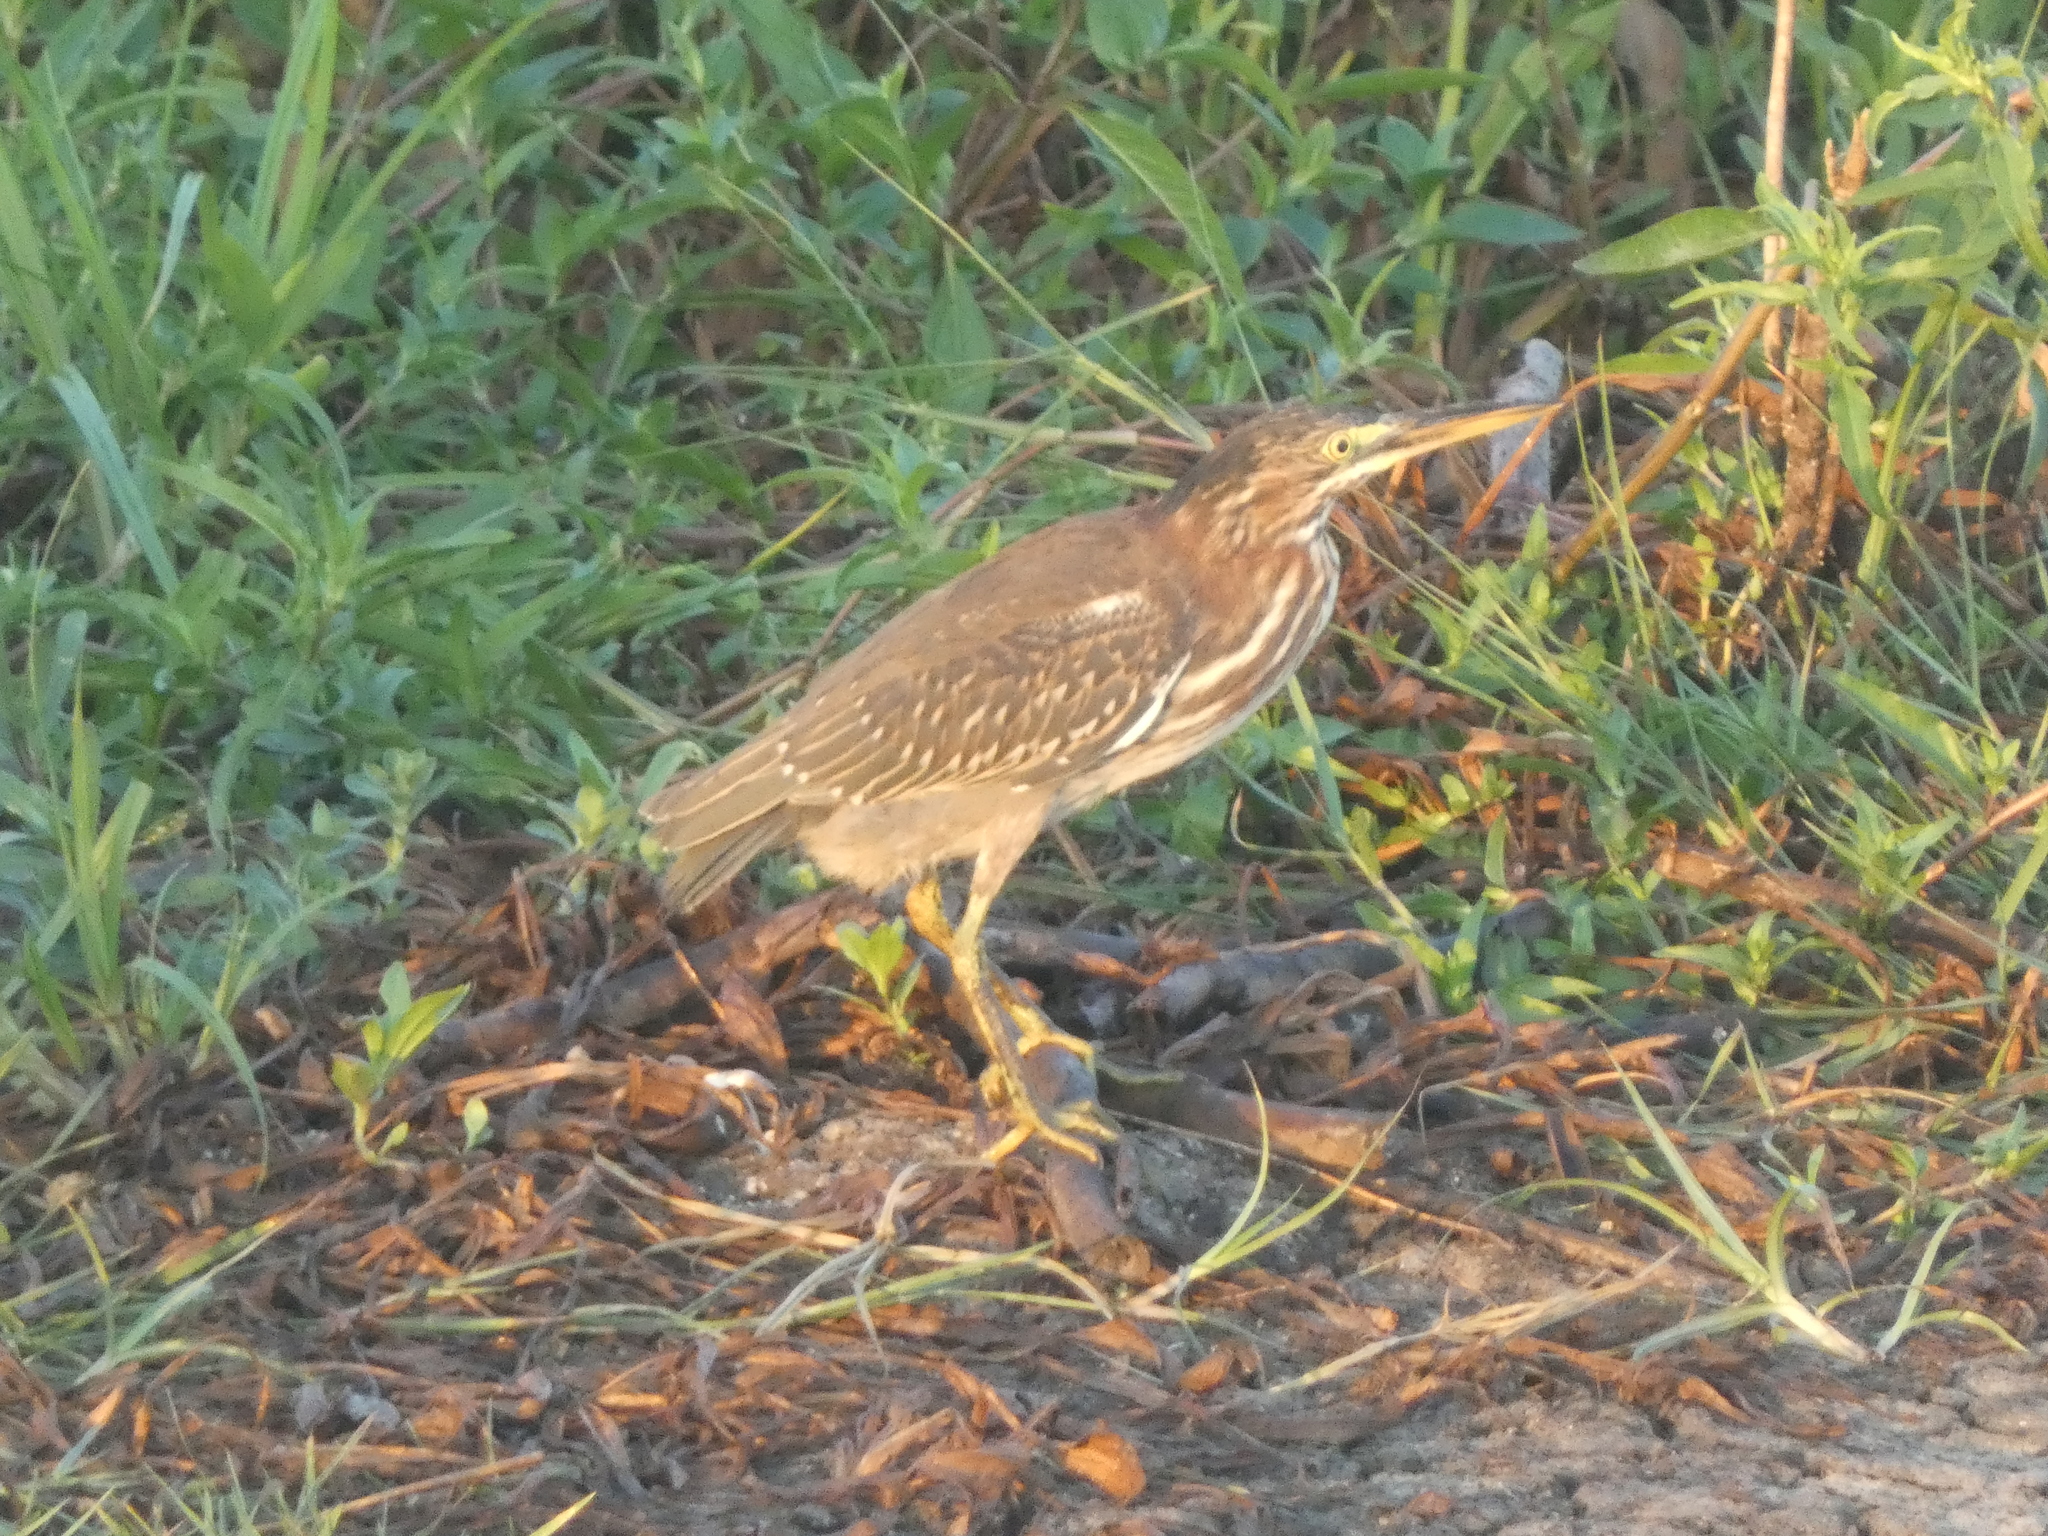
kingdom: Animalia
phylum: Chordata
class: Aves
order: Pelecaniformes
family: Ardeidae
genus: Butorides
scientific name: Butorides virescens
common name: Green heron
